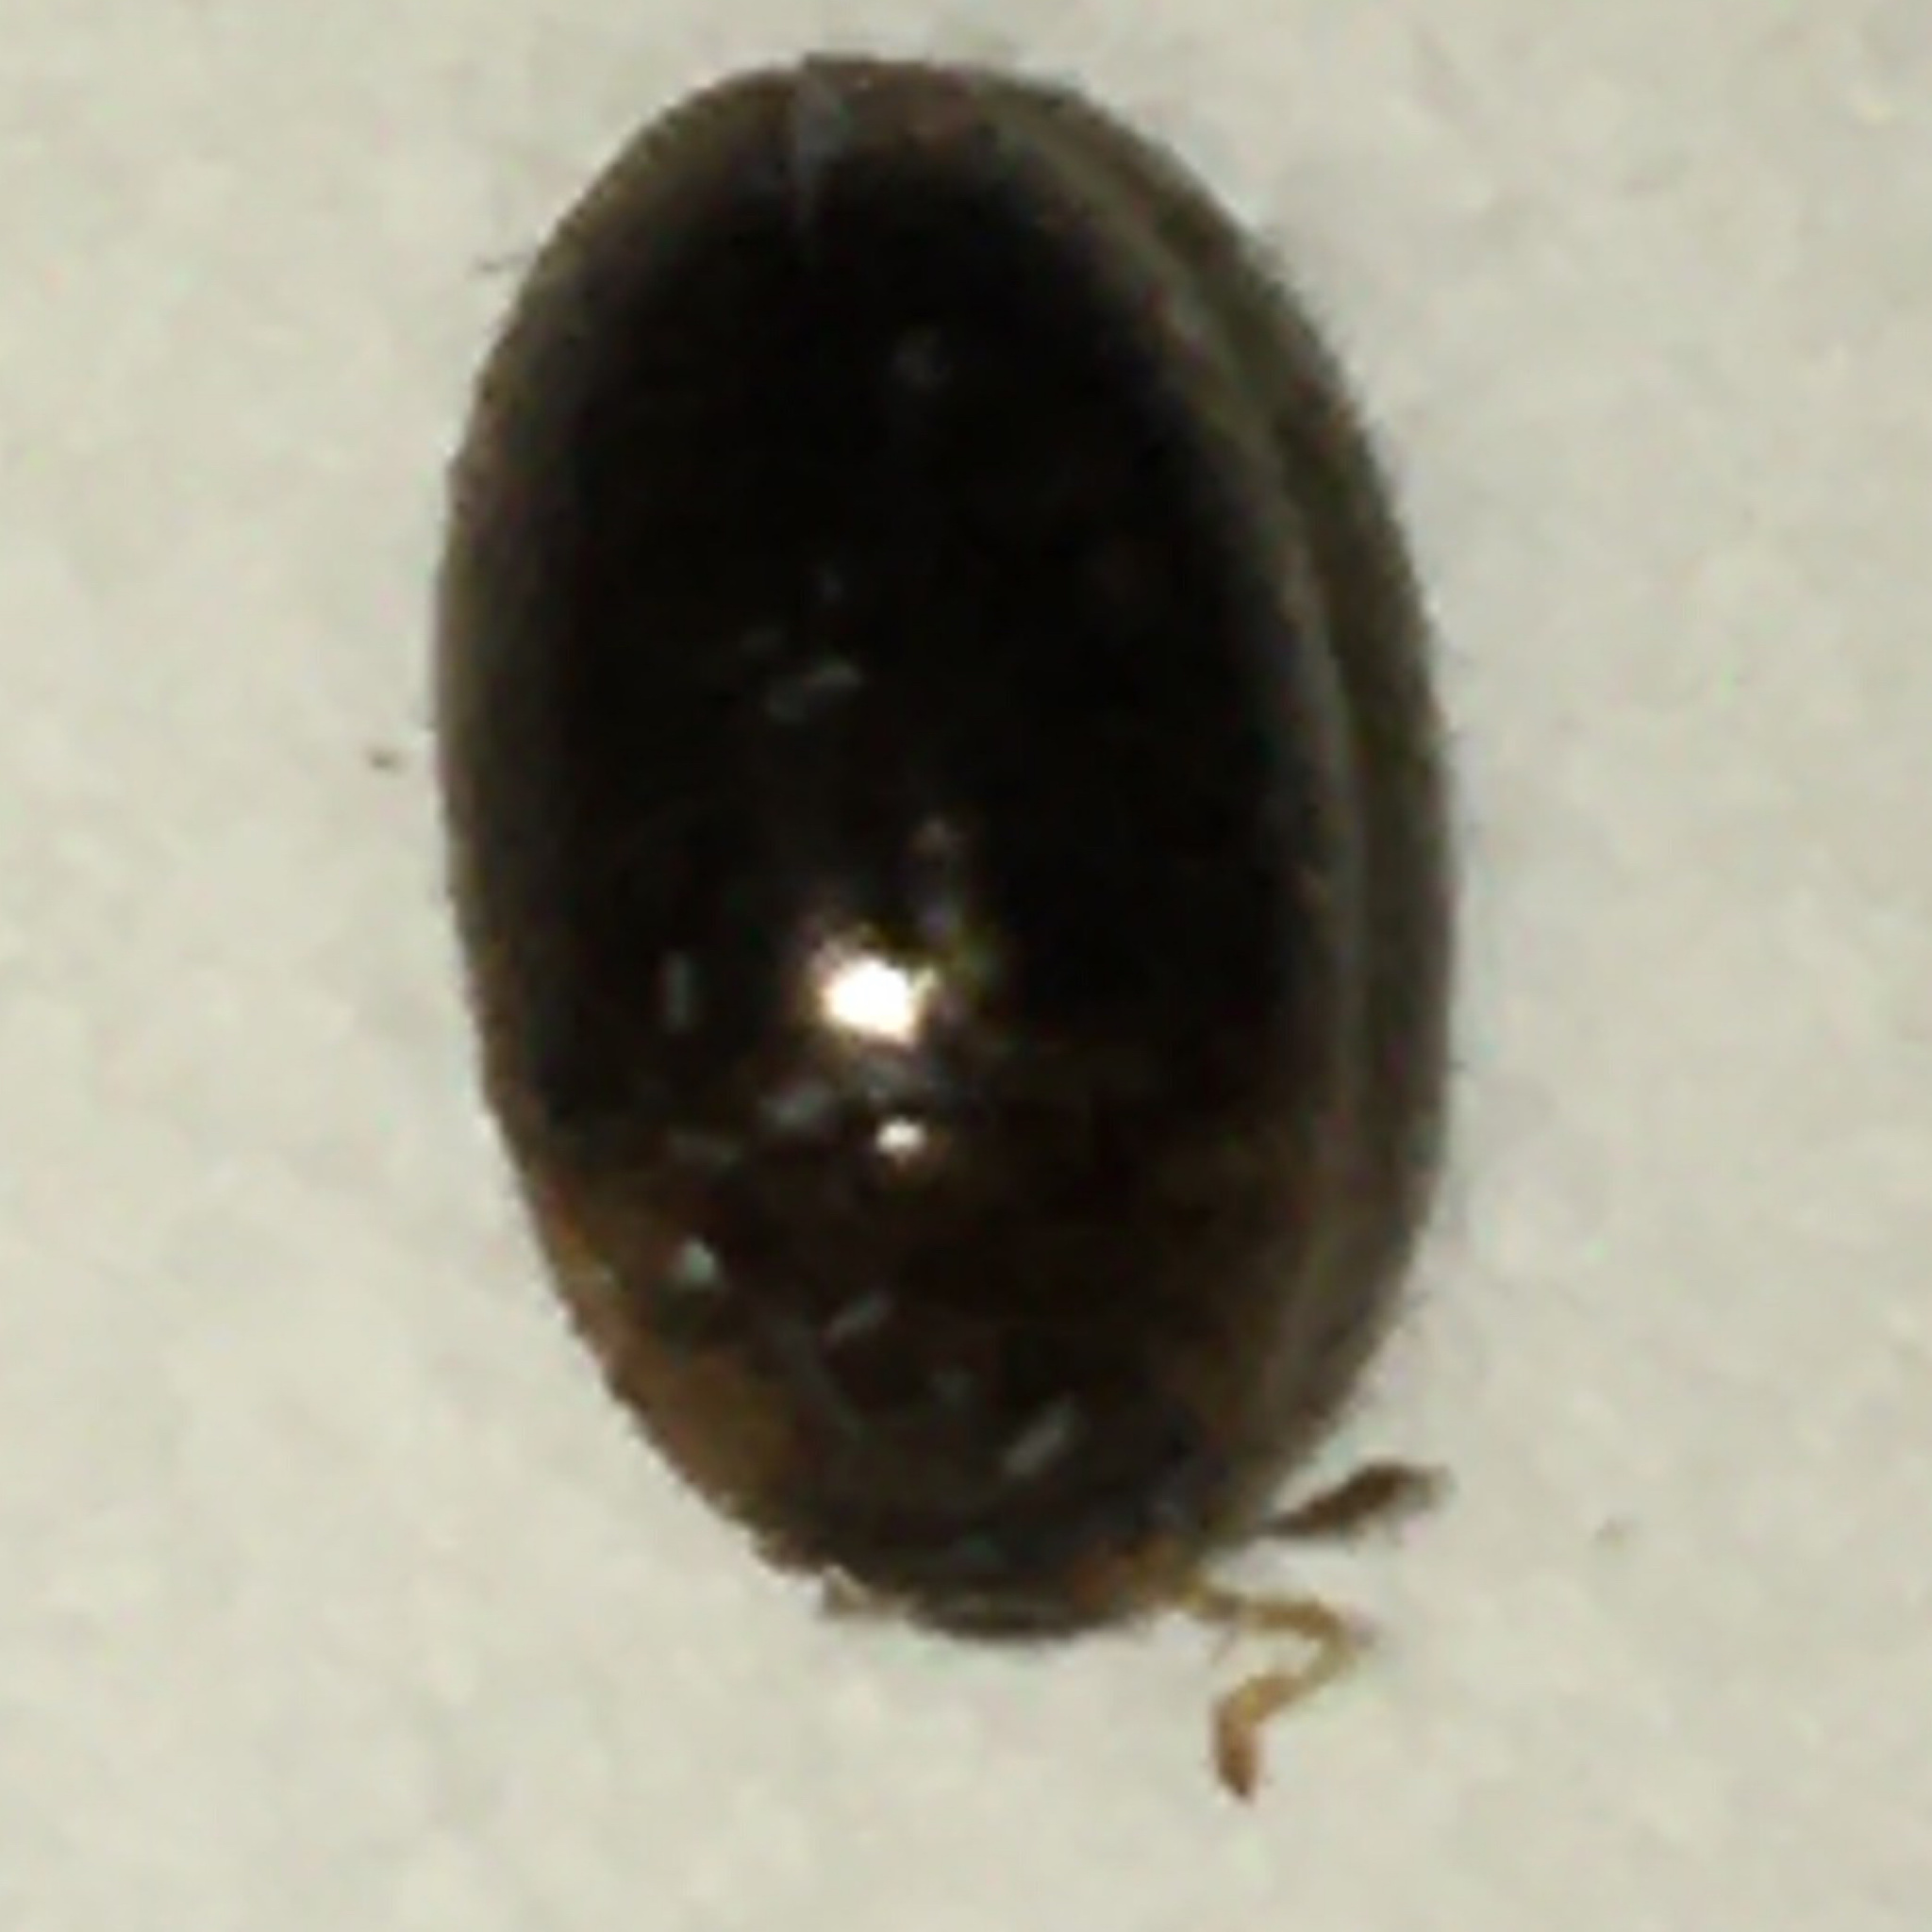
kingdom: Animalia
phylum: Arthropoda
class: Insecta
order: Coleoptera
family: Hydrophilidae
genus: Enochrus
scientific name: Enochrus
